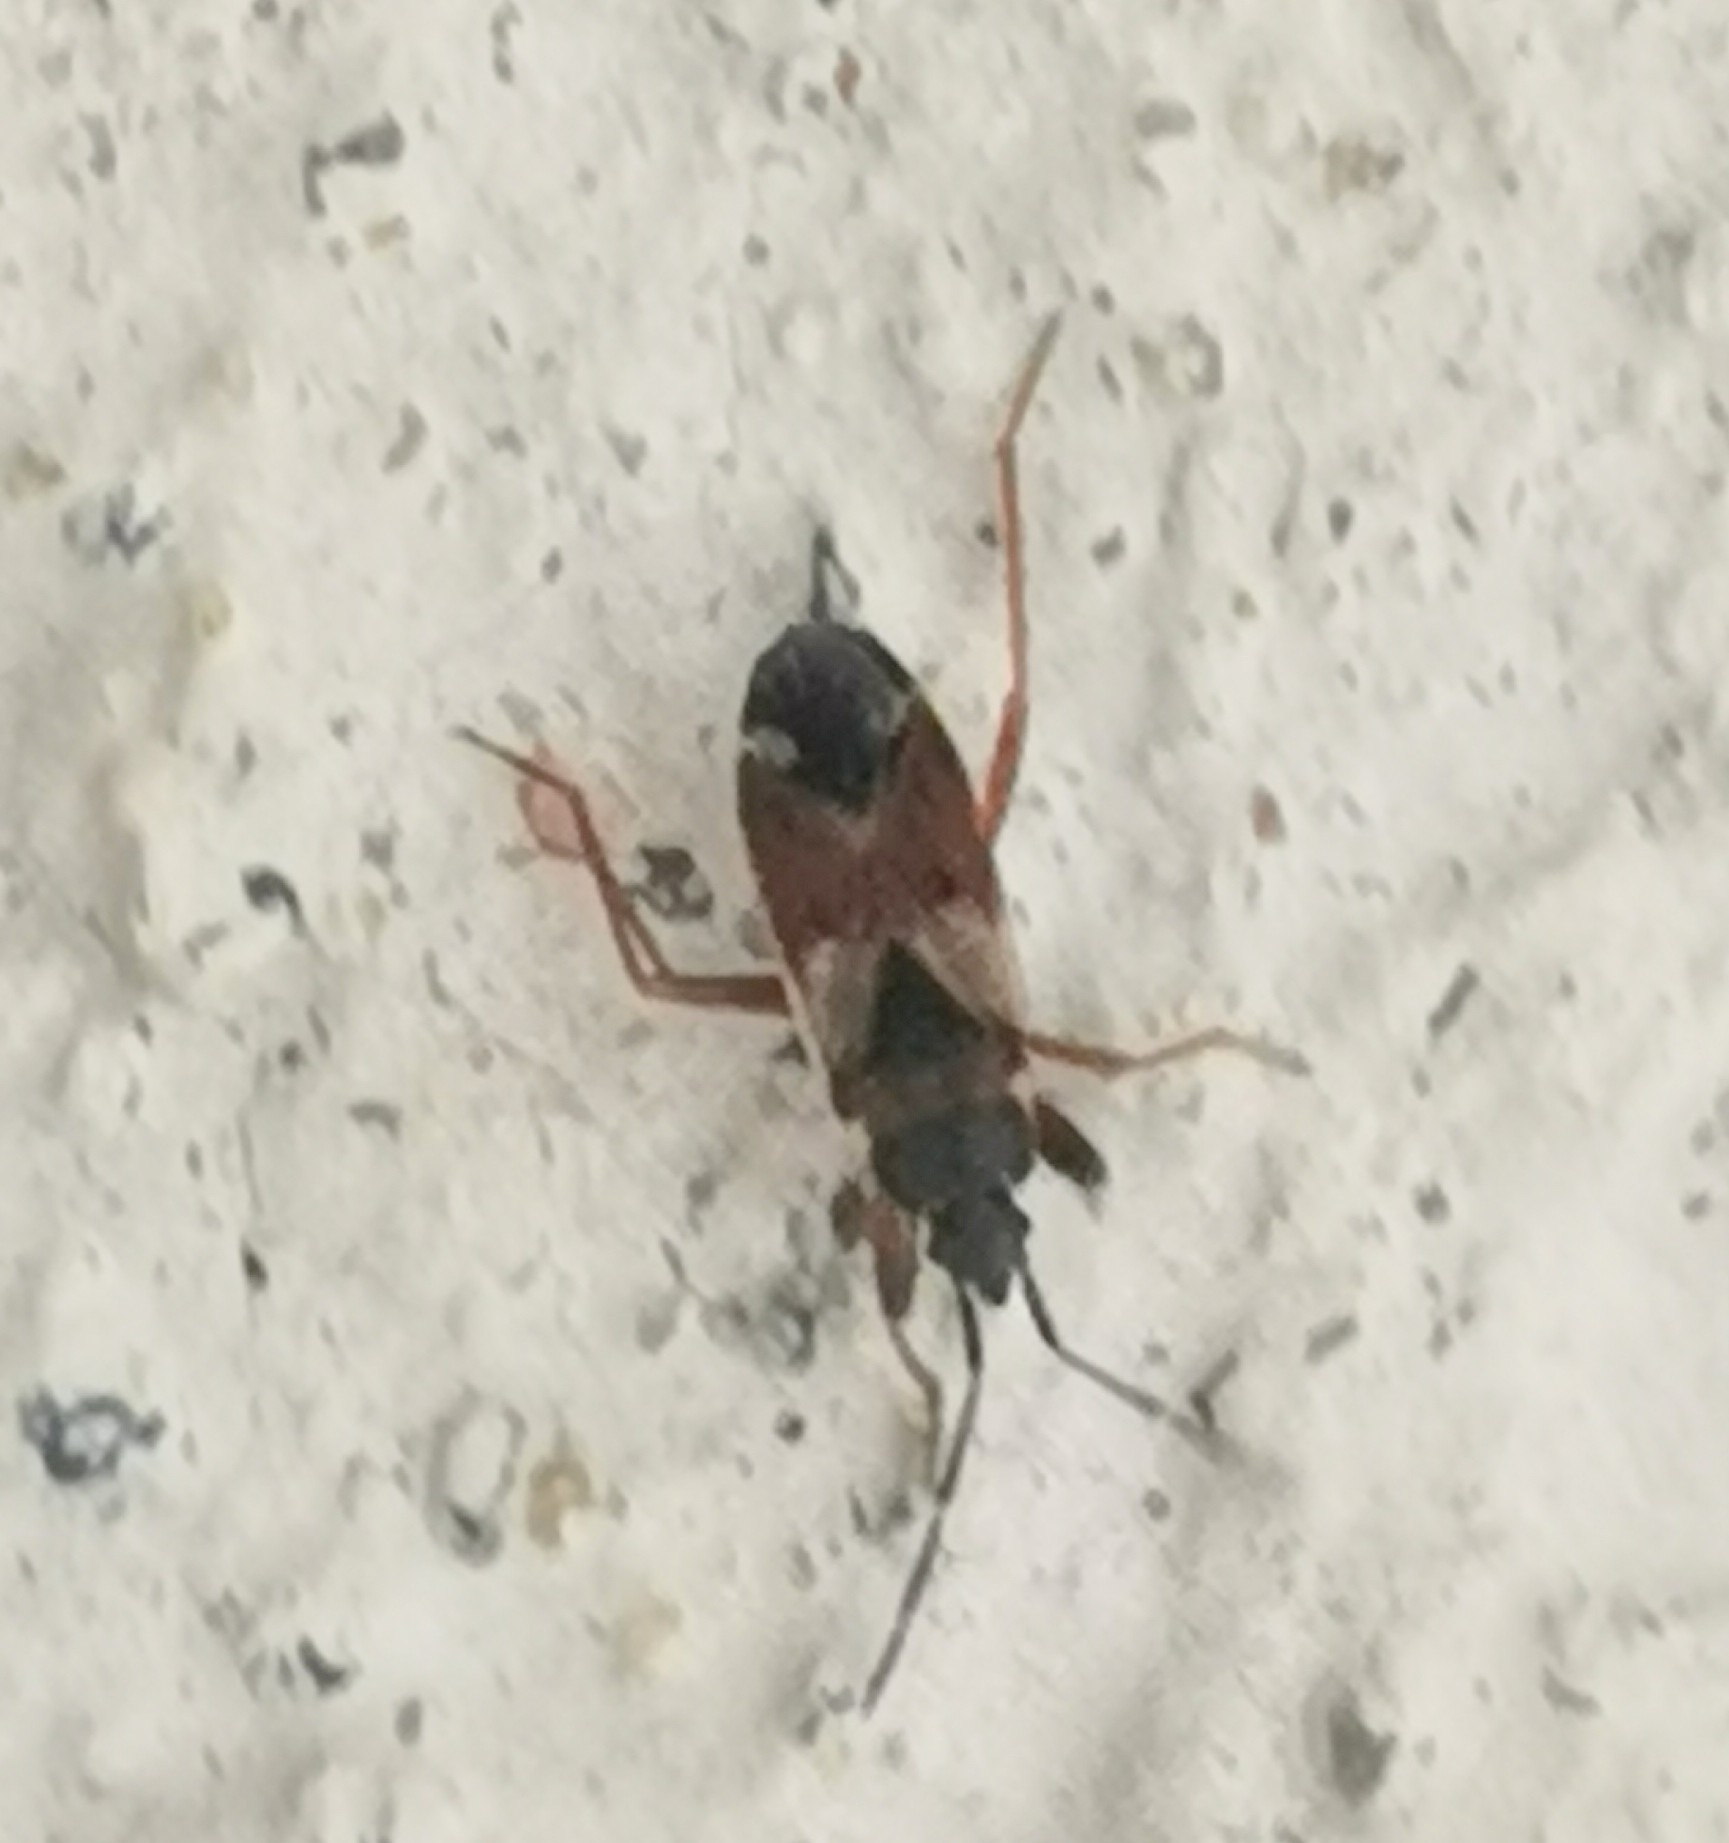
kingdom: Animalia
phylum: Arthropoda
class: Insecta
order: Hemiptera
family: Rhyparochromidae
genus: Eremocoris
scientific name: Eremocoris abietis
